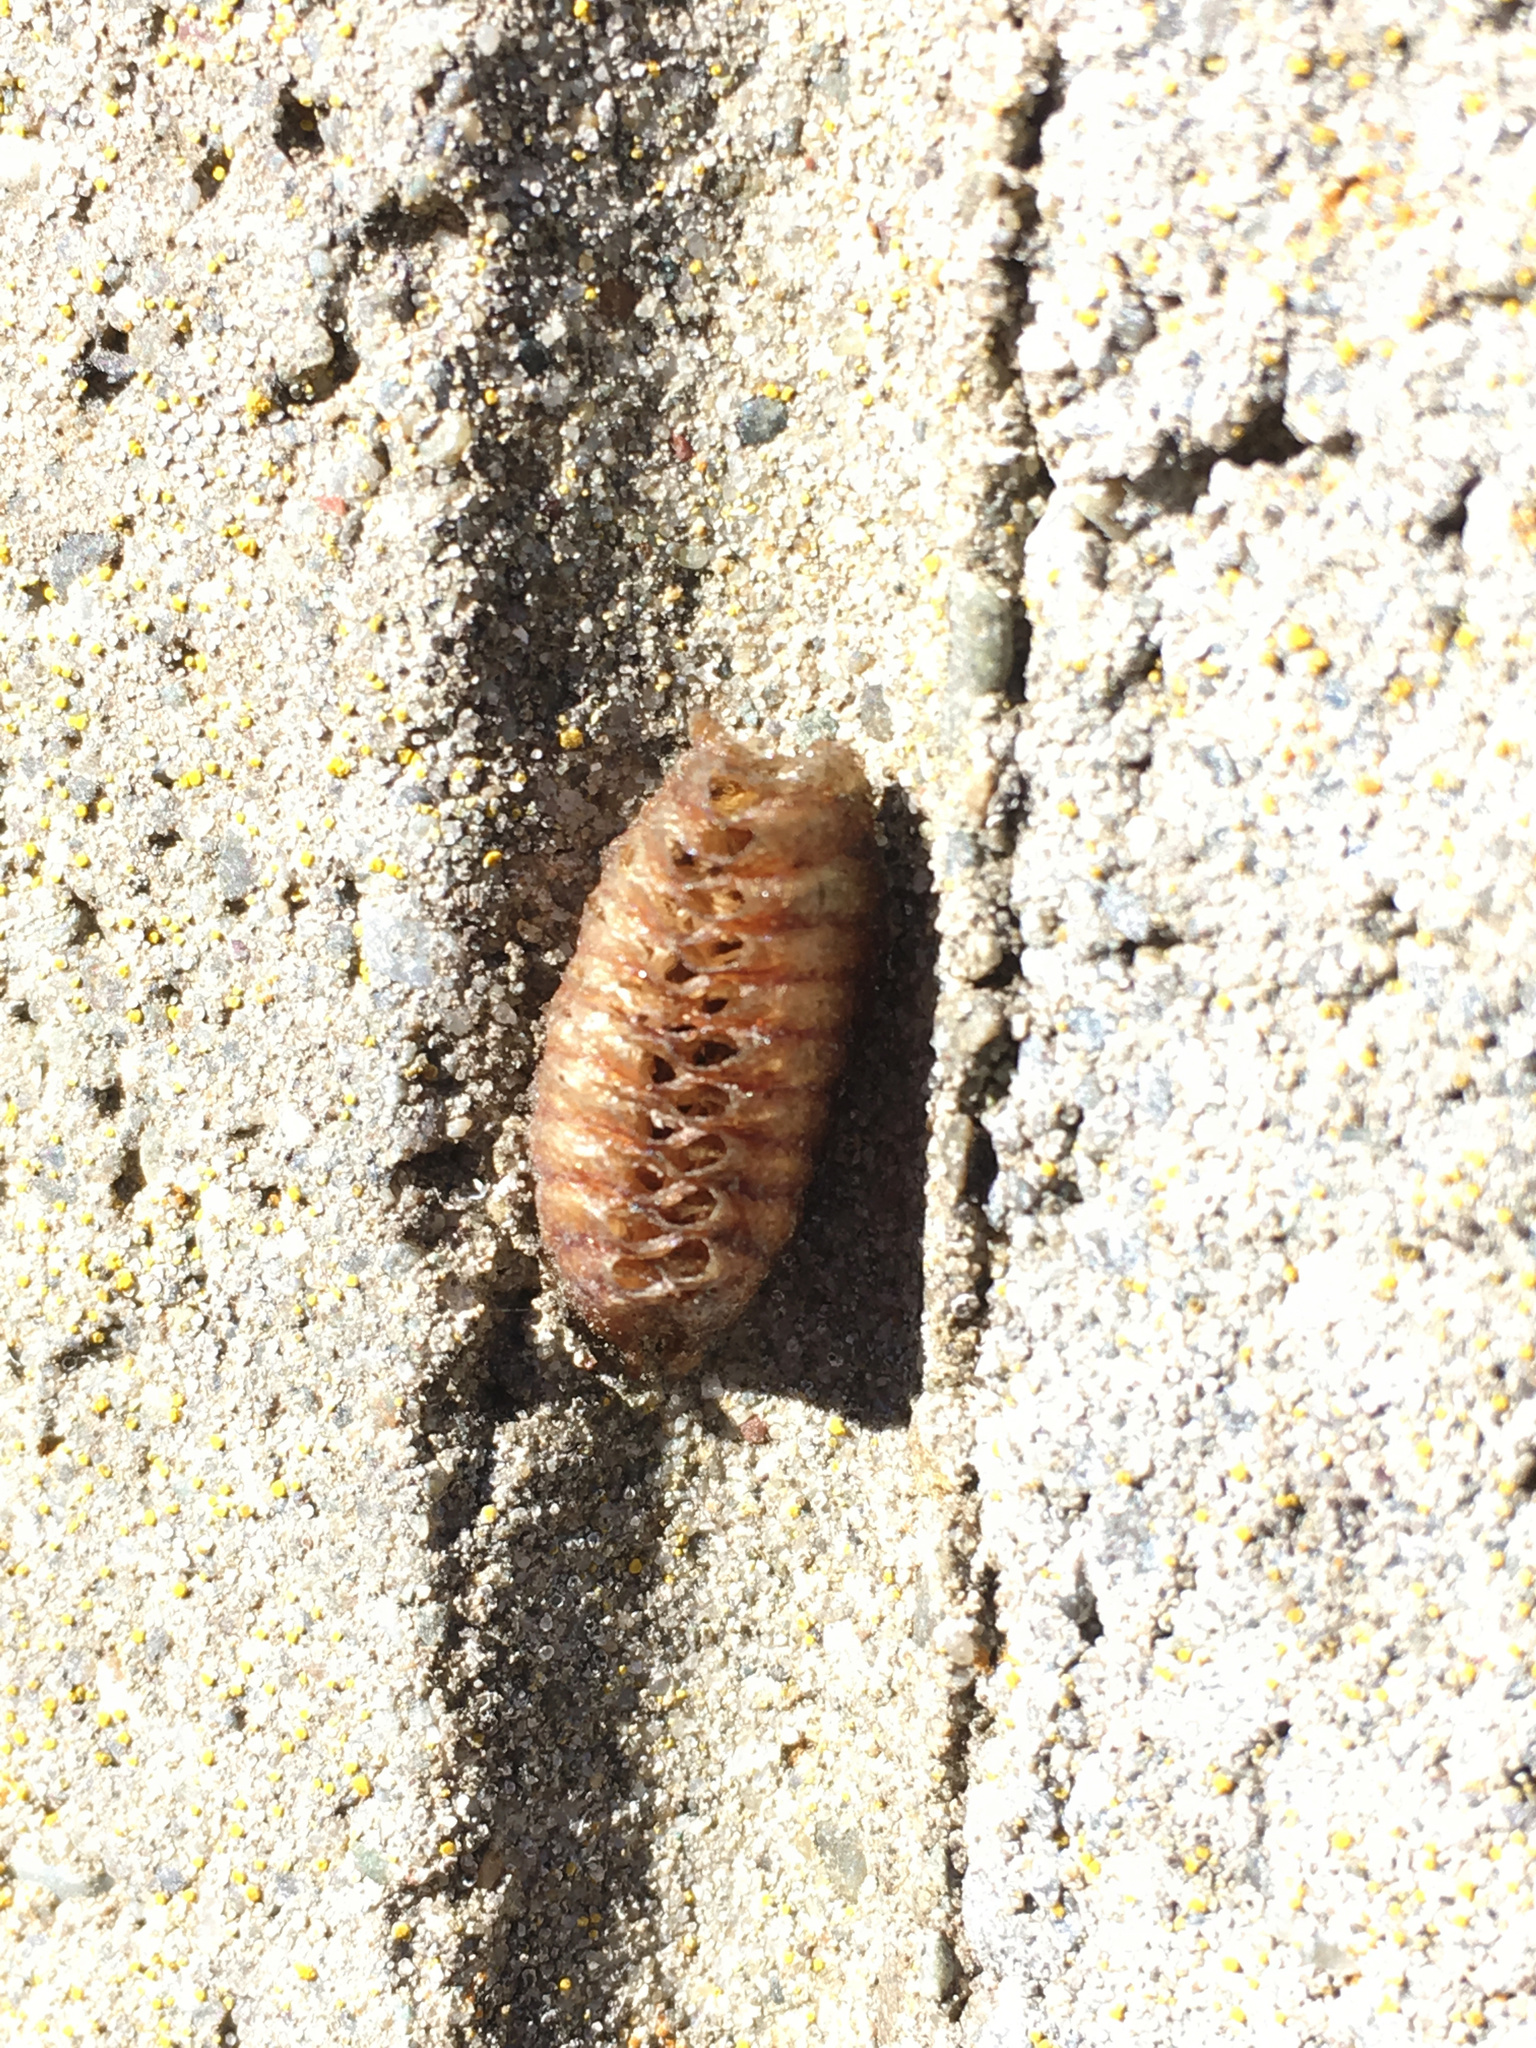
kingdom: Animalia
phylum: Arthropoda
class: Insecta
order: Mantodea
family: Mantidae
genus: Orthodera
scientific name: Orthodera novaezealandiae
